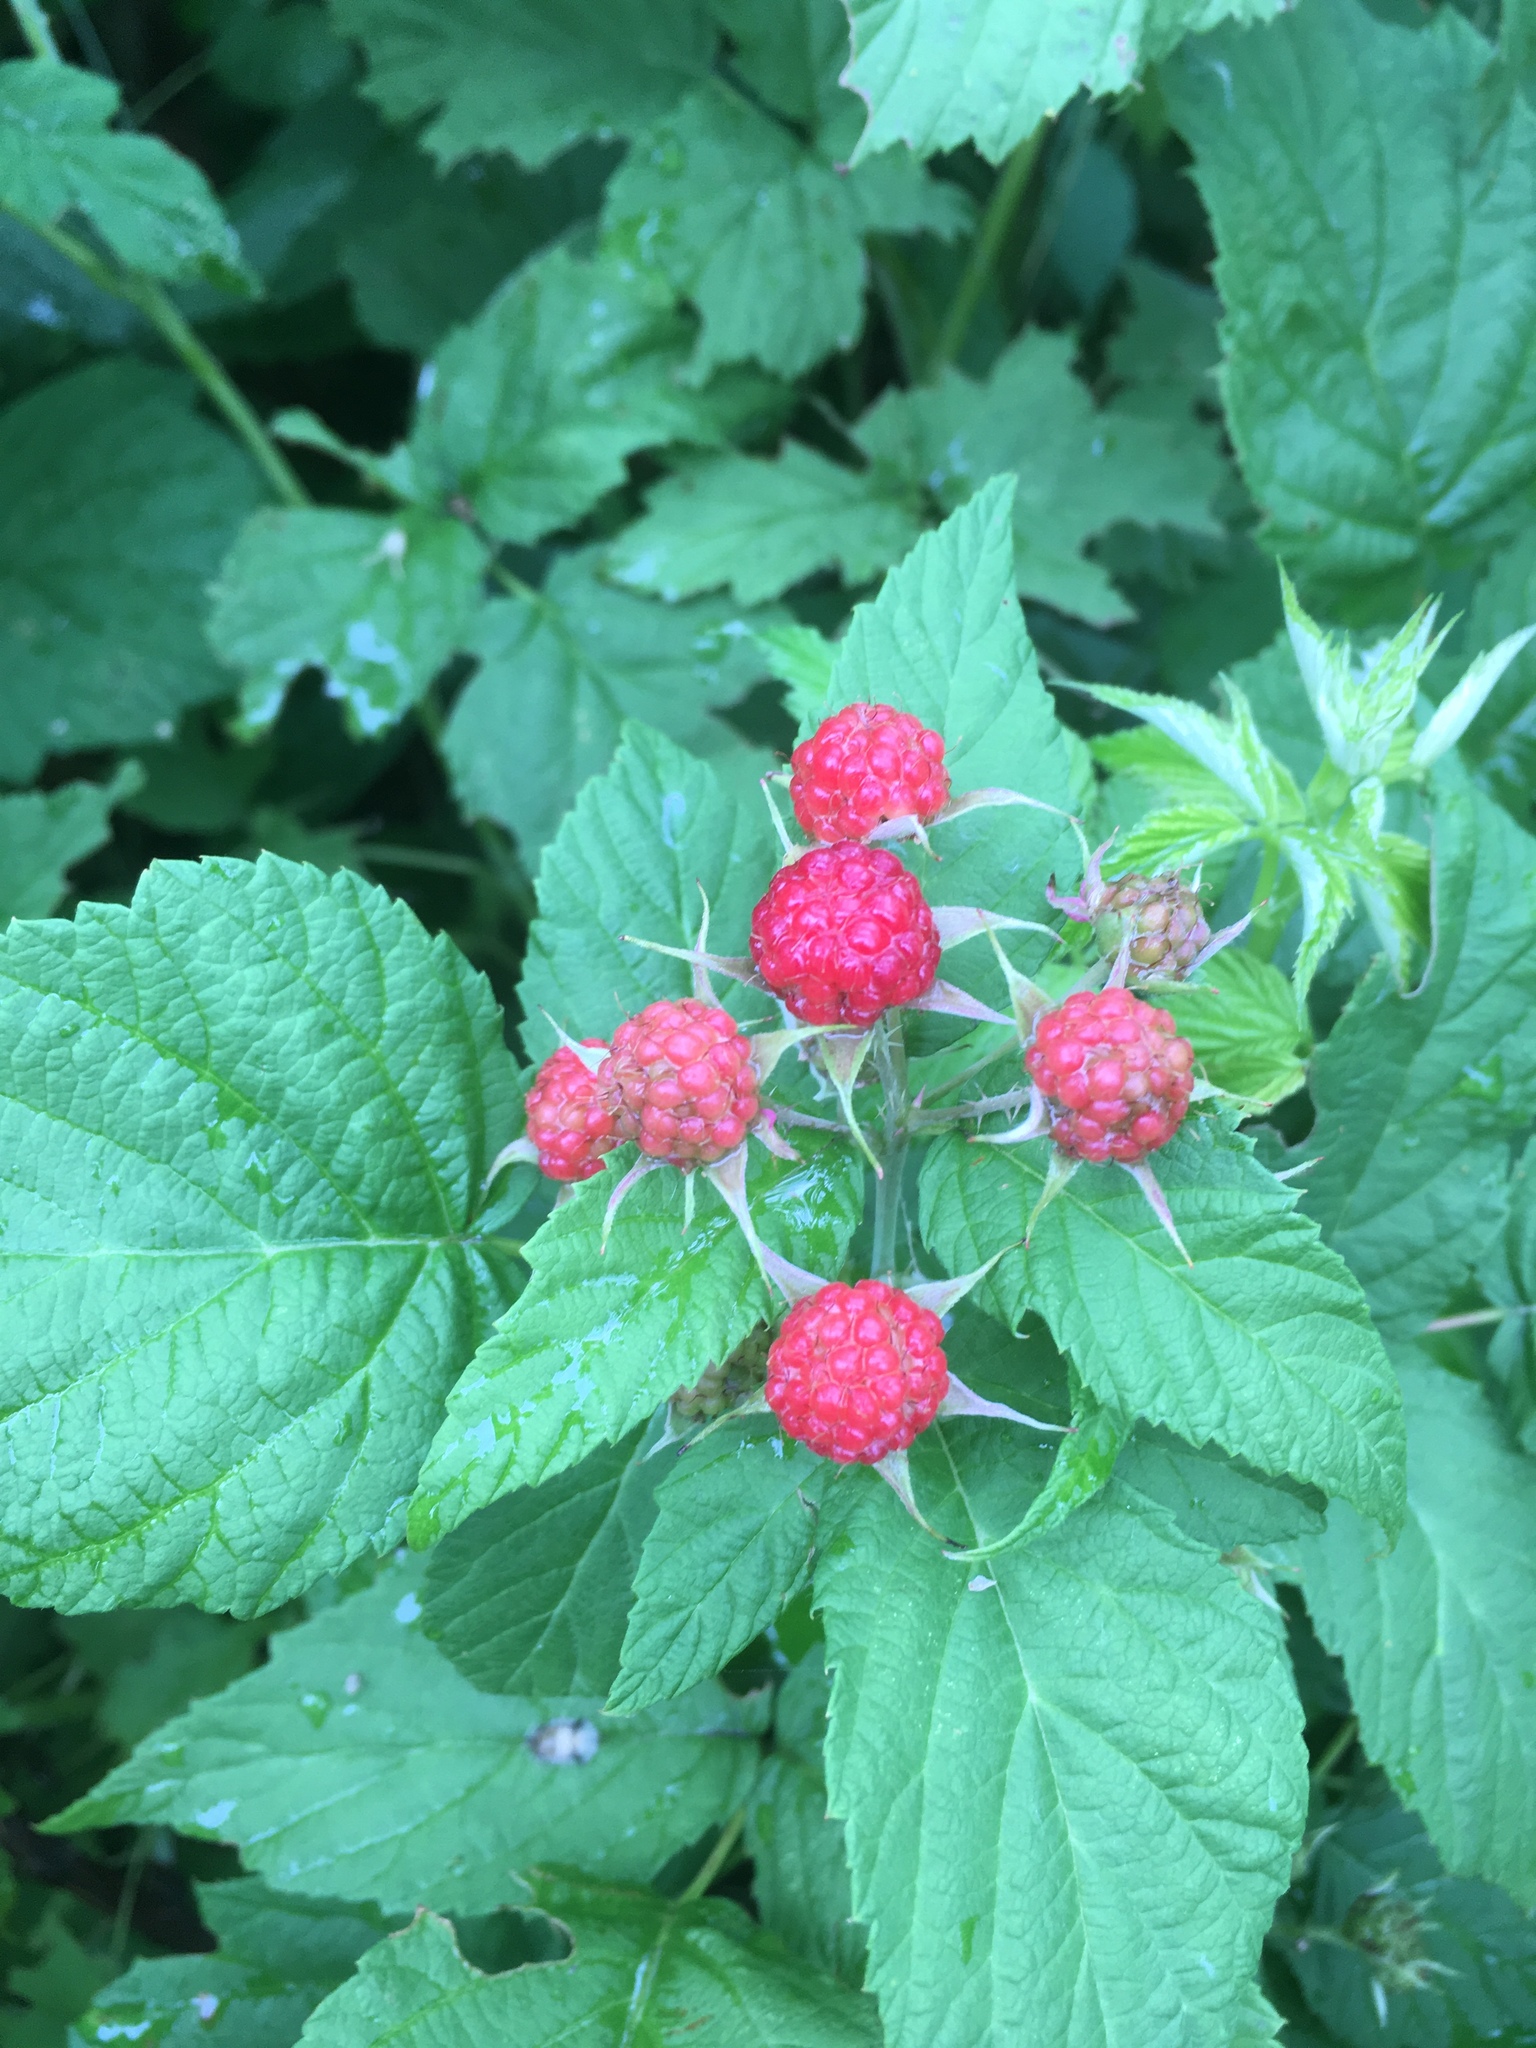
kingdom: Plantae
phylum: Tracheophyta
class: Magnoliopsida
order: Rosales
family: Rosaceae
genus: Rubus
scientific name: Rubus occidentalis
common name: Black raspberry
